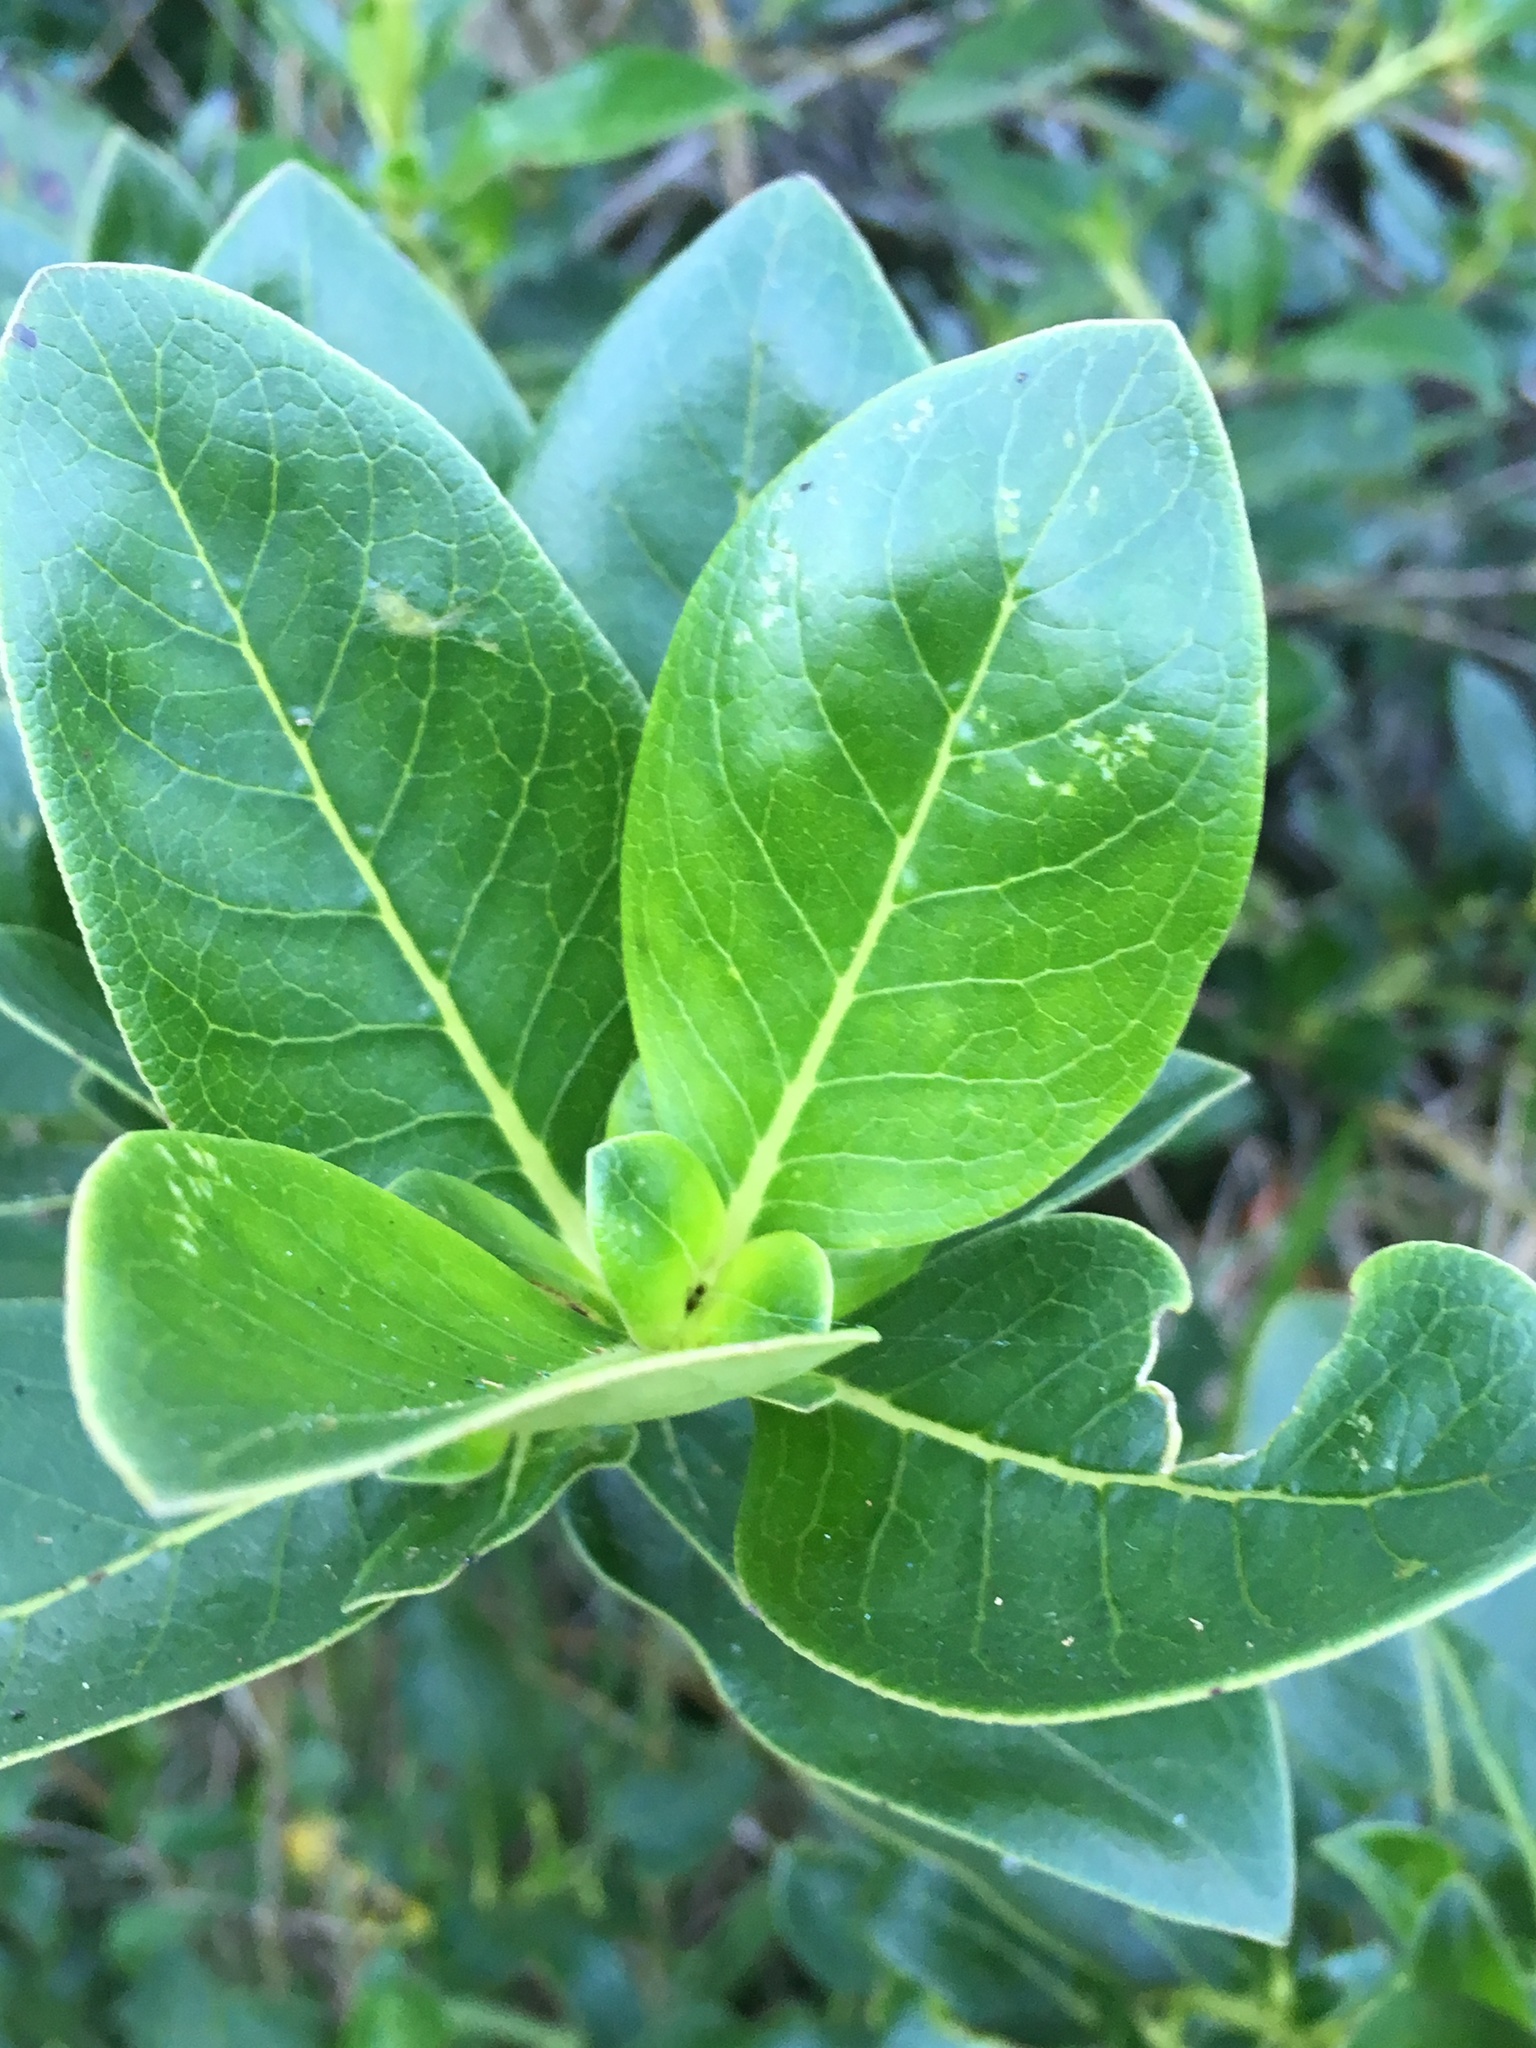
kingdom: Plantae
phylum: Tracheophyta
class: Magnoliopsida
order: Gentianales
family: Rubiaceae
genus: Coprosma
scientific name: Coprosma robusta
